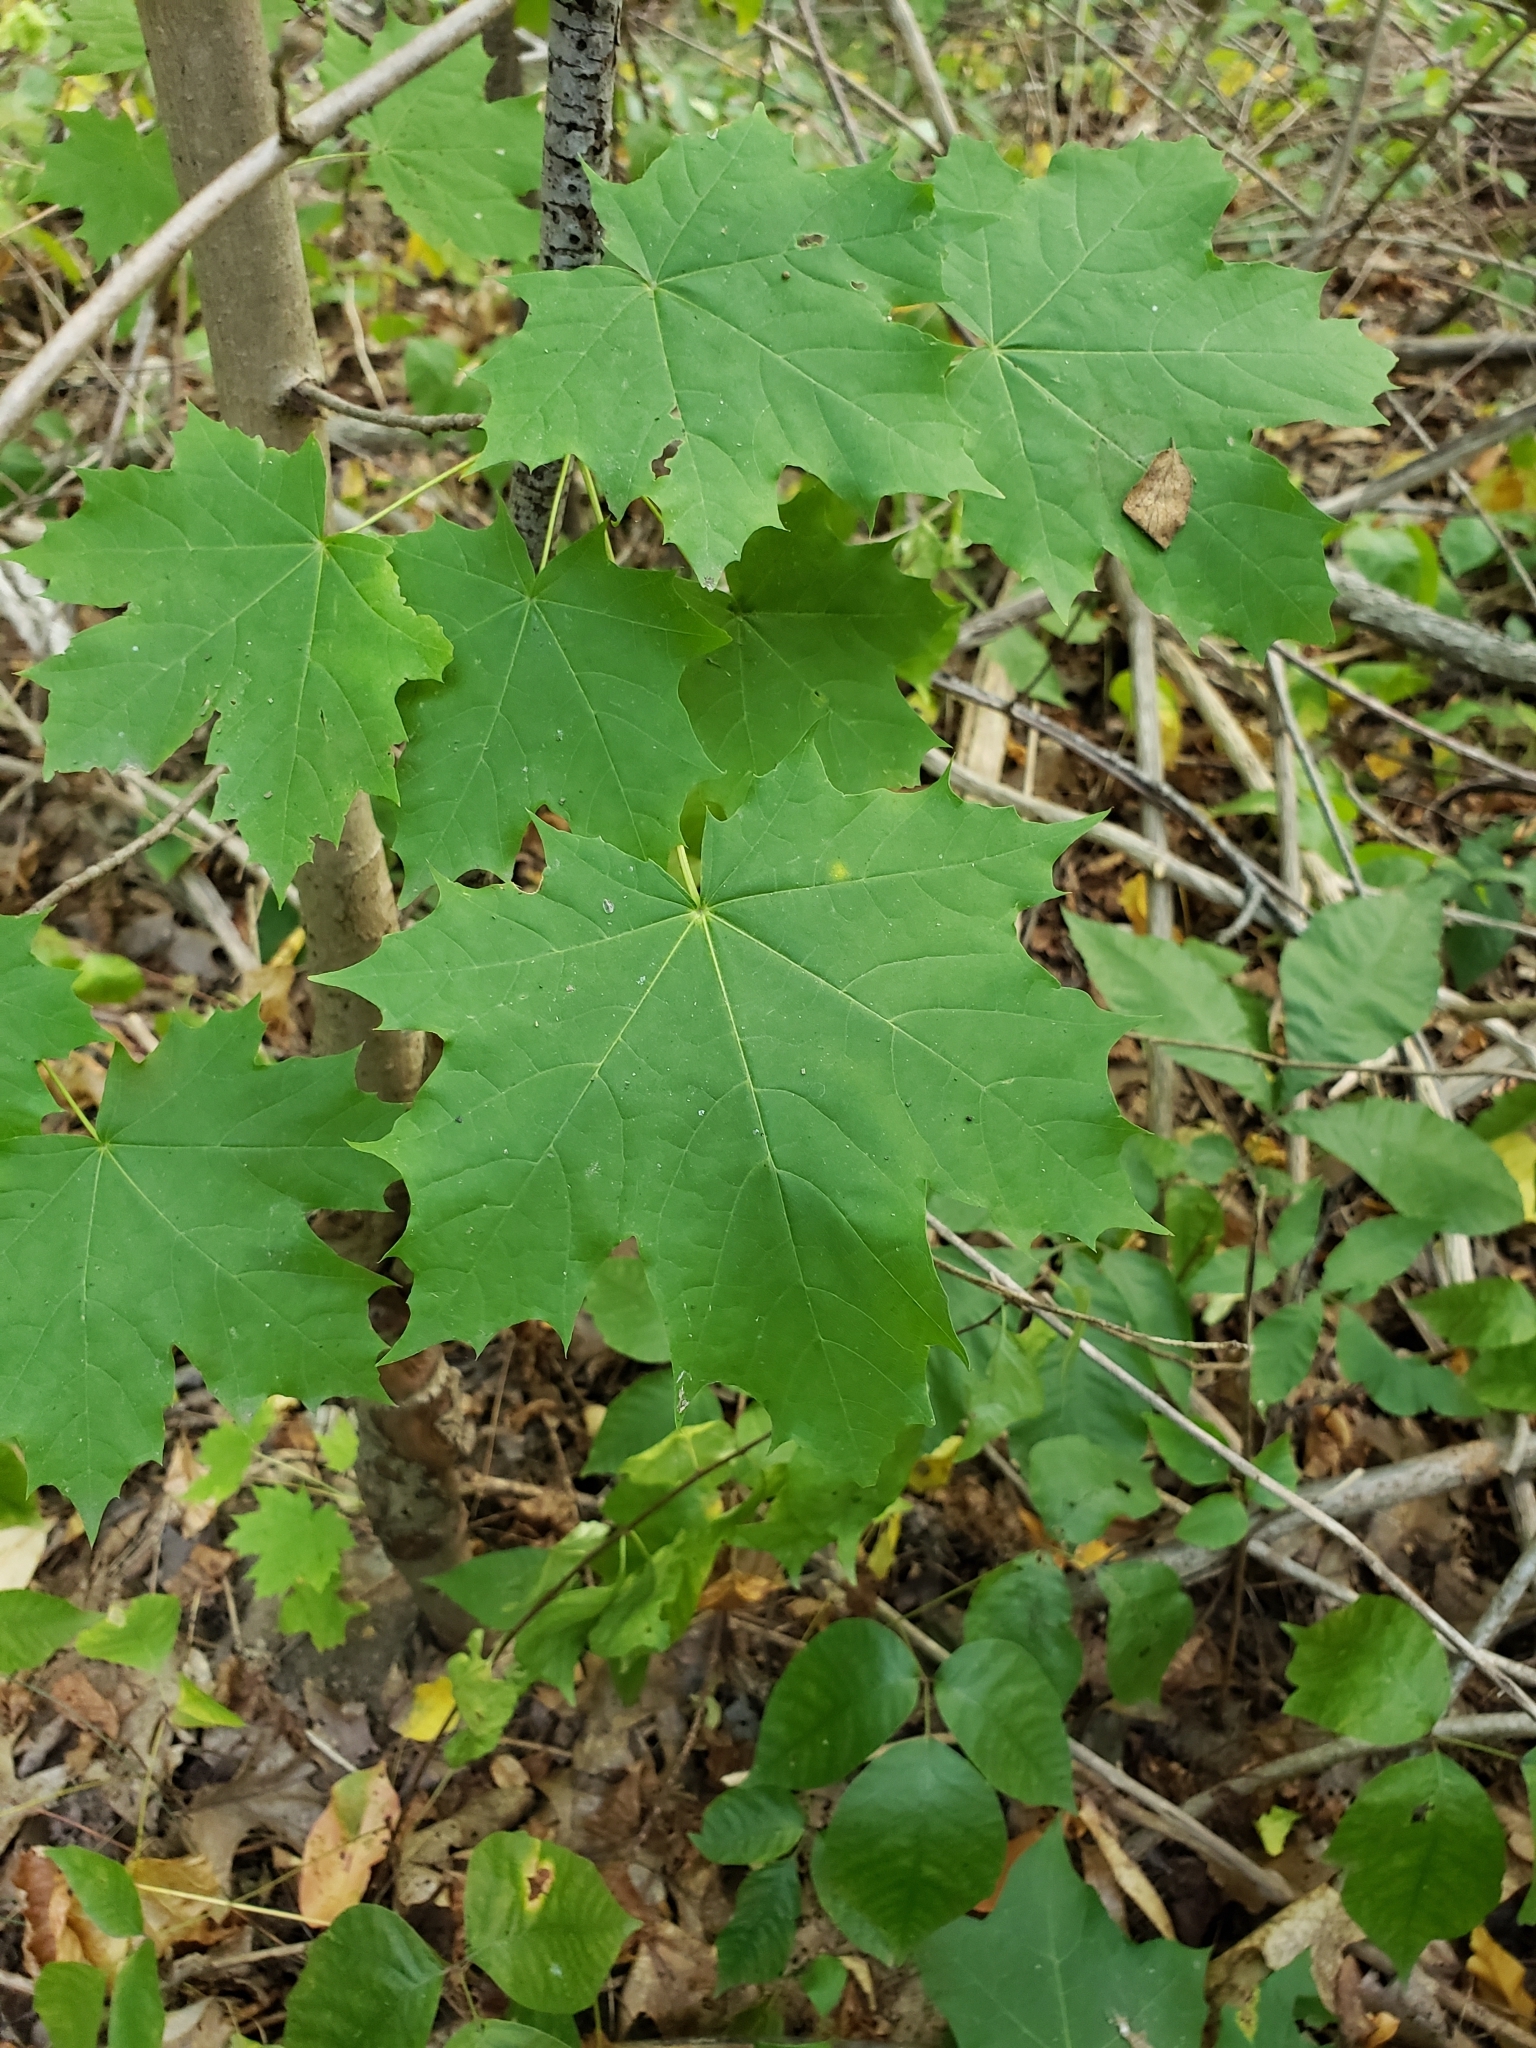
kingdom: Plantae
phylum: Tracheophyta
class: Magnoliopsida
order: Sapindales
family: Sapindaceae
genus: Acer
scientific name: Acer platanoides
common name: Norway maple
